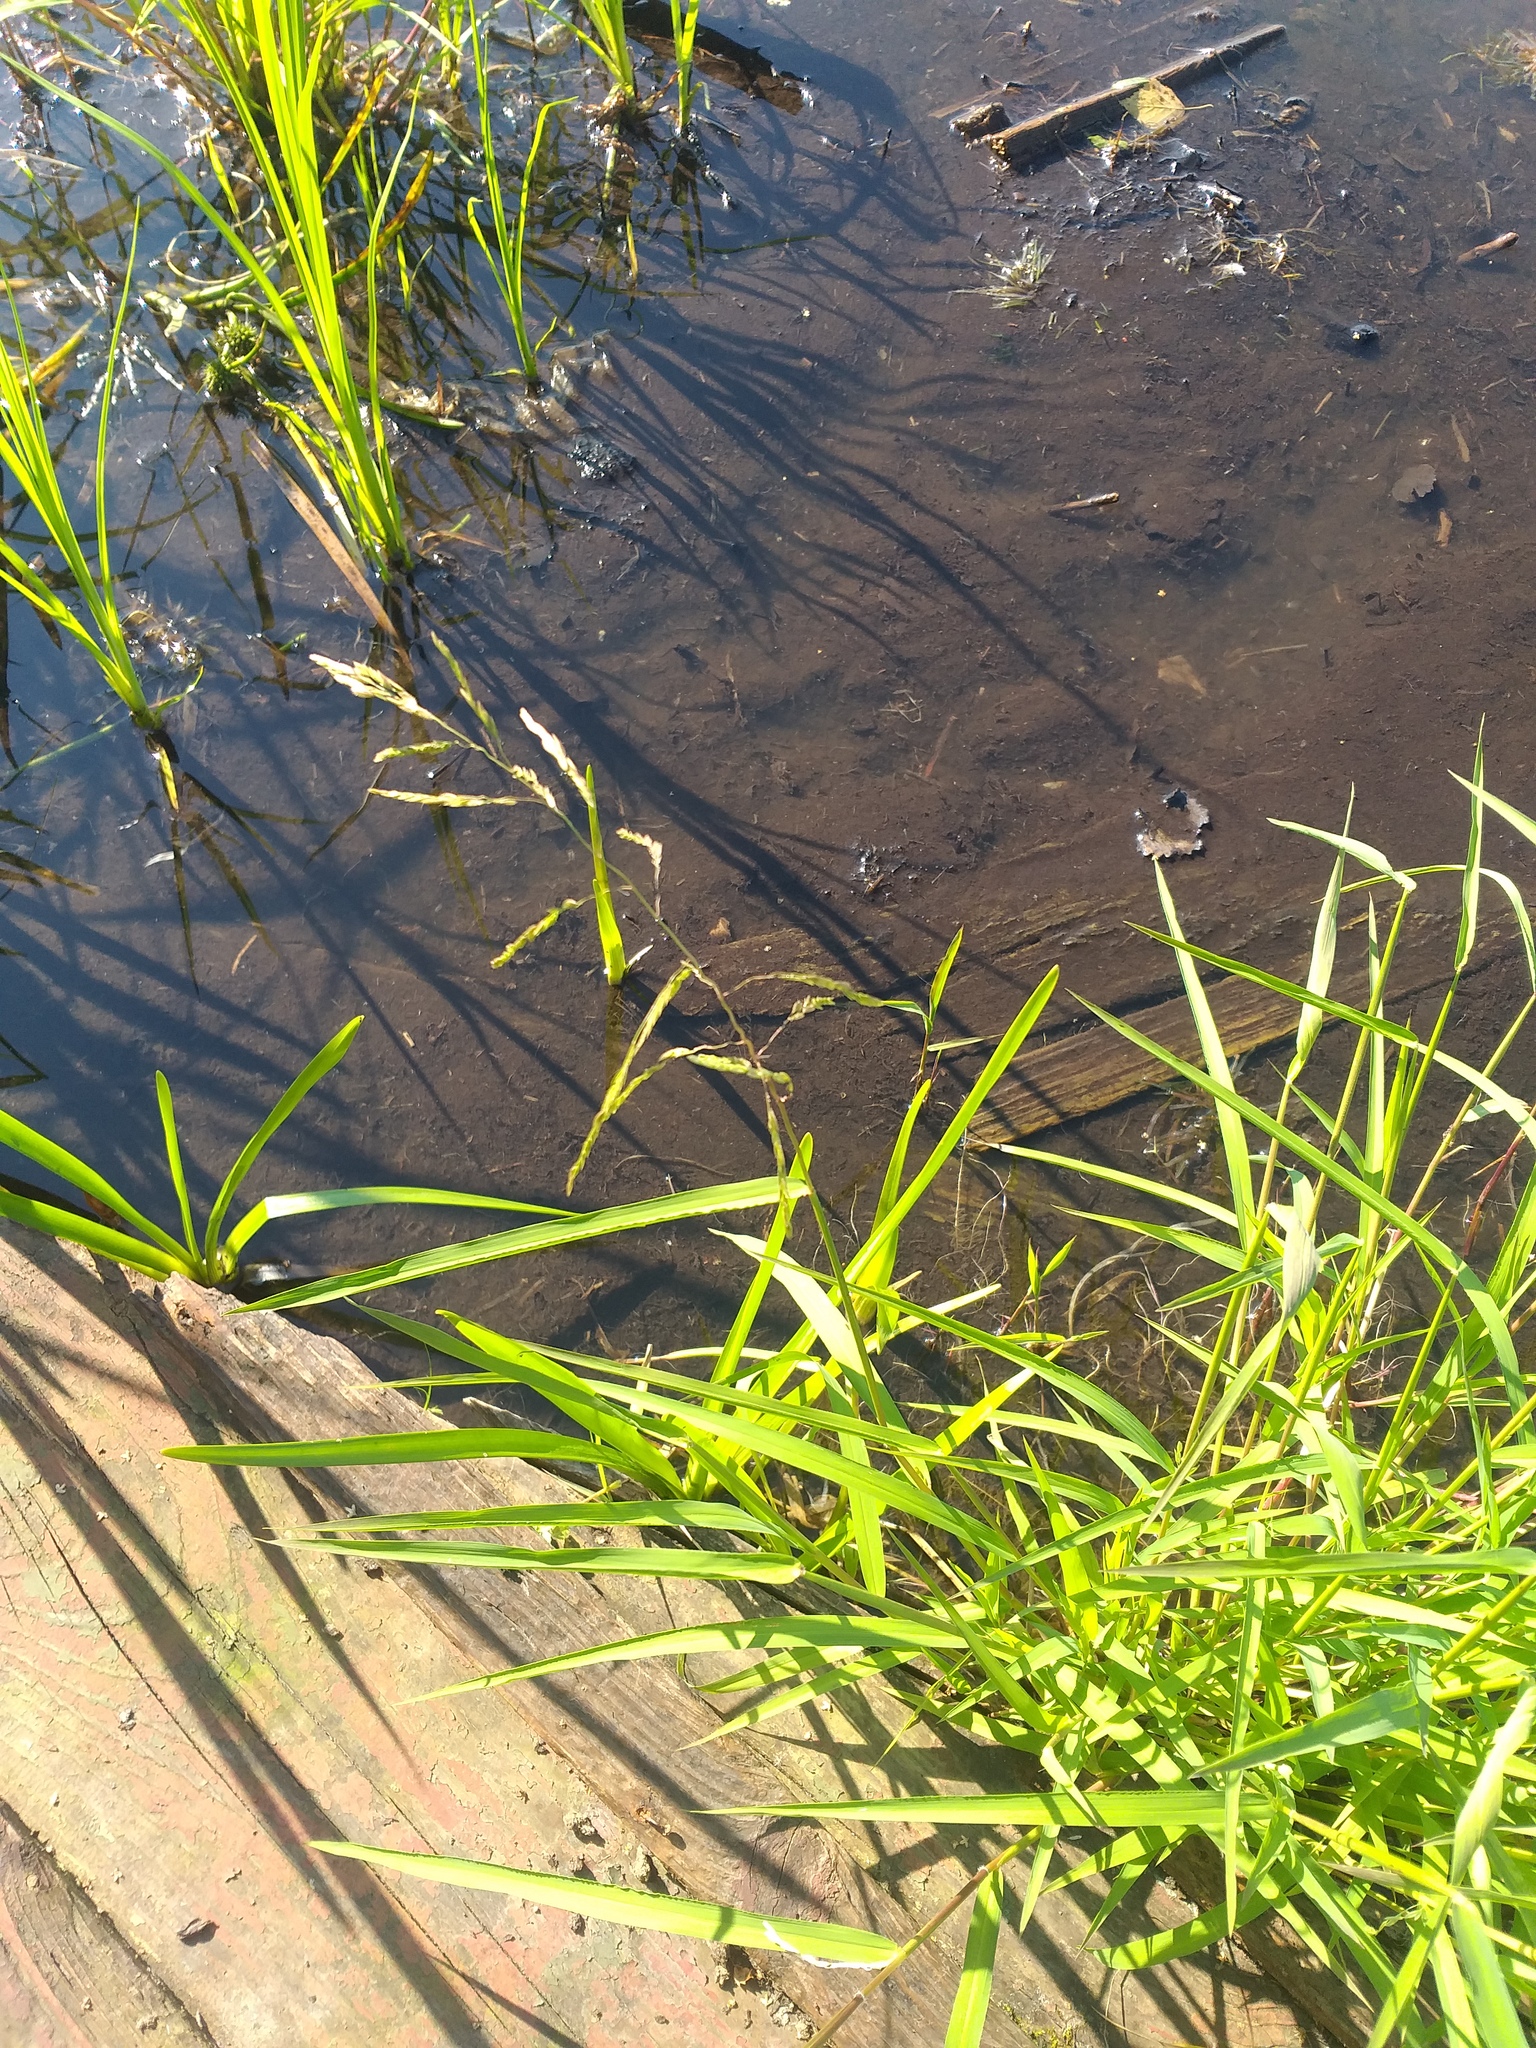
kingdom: Plantae
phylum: Tracheophyta
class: Liliopsida
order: Poales
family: Poaceae
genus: Leersia
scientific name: Leersia oryzoides
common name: Cut-grass
